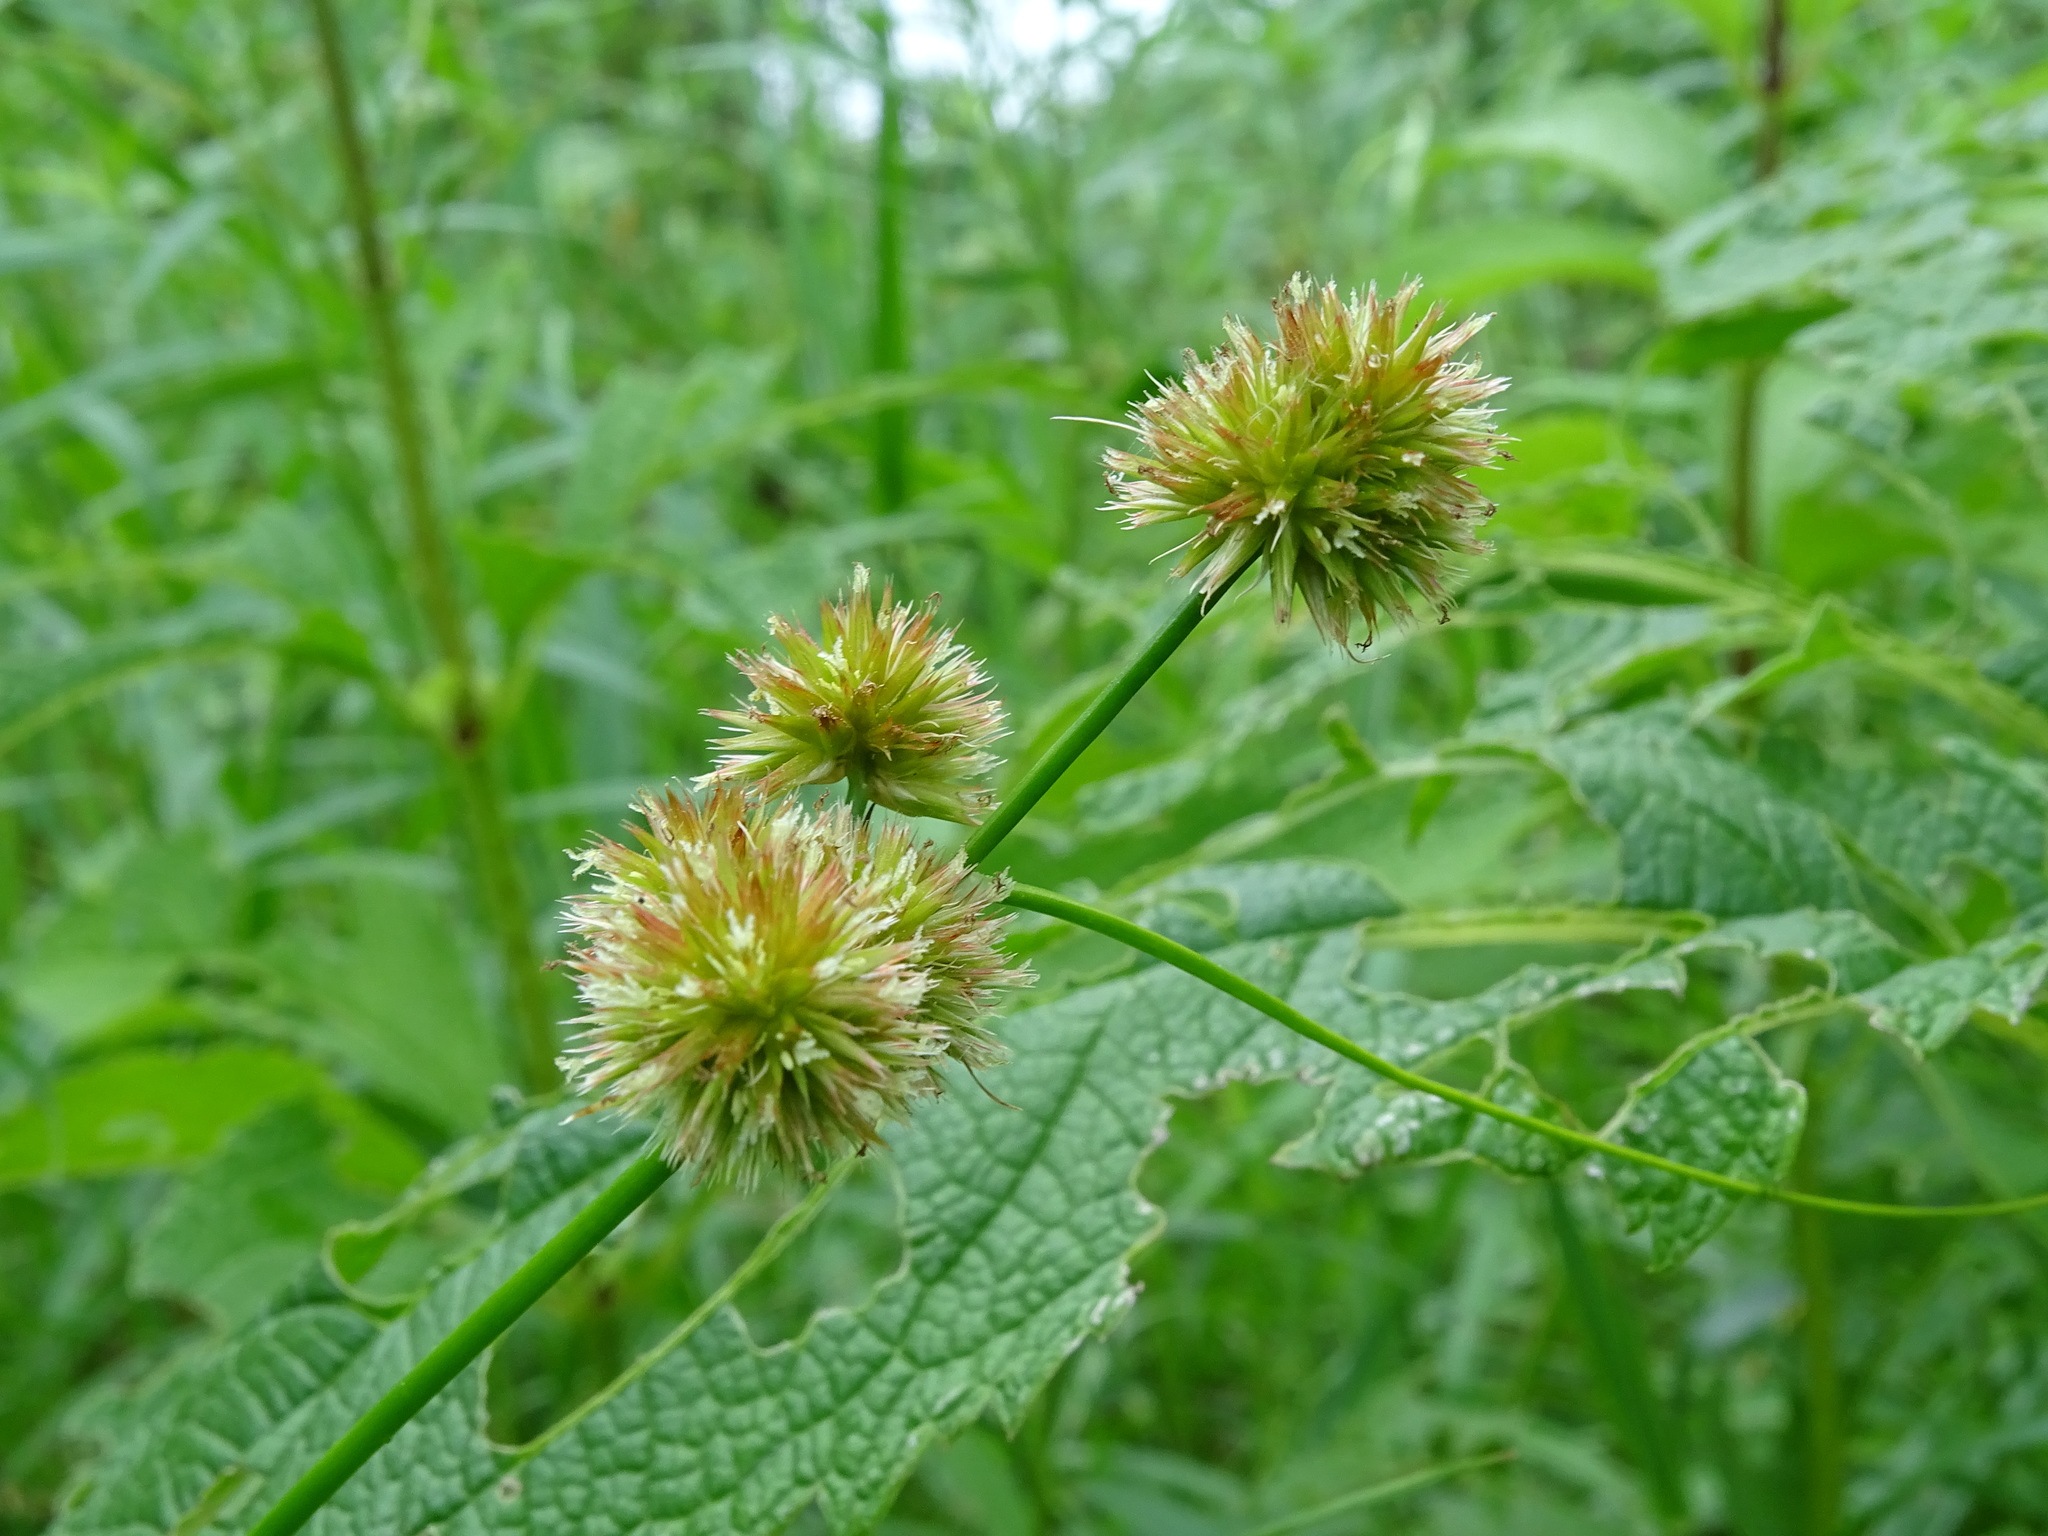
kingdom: Plantae
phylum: Tracheophyta
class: Liliopsida
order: Poales
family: Juncaceae
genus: Juncus
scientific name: Juncus torreyi
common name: Torrey's rush
